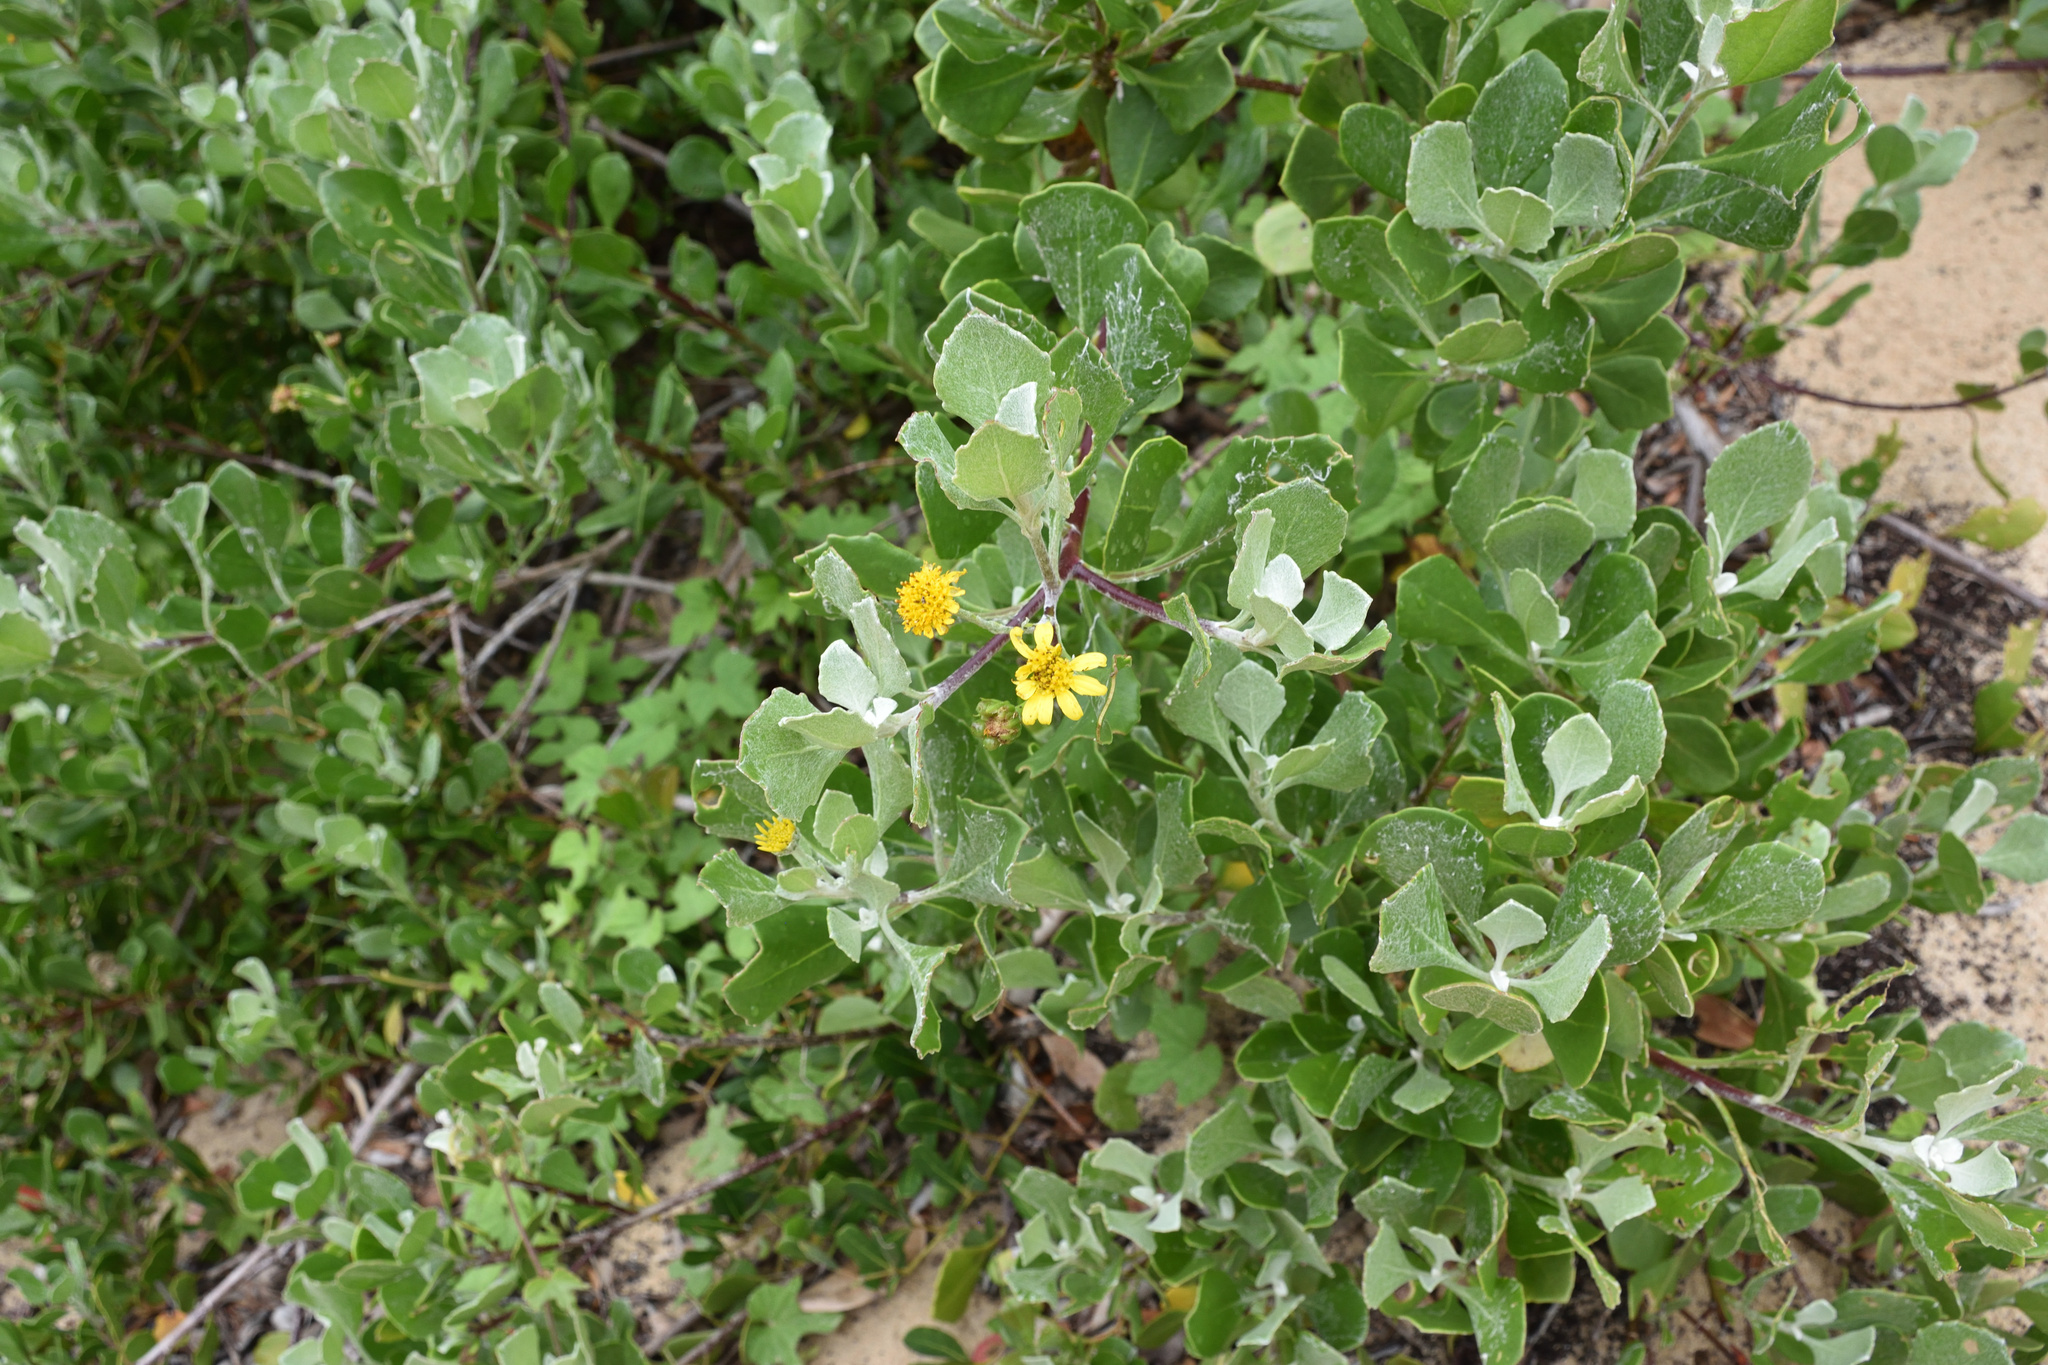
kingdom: Plantae
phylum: Tracheophyta
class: Magnoliopsida
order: Asterales
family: Asteraceae
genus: Osteospermum
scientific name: Osteospermum moniliferum
